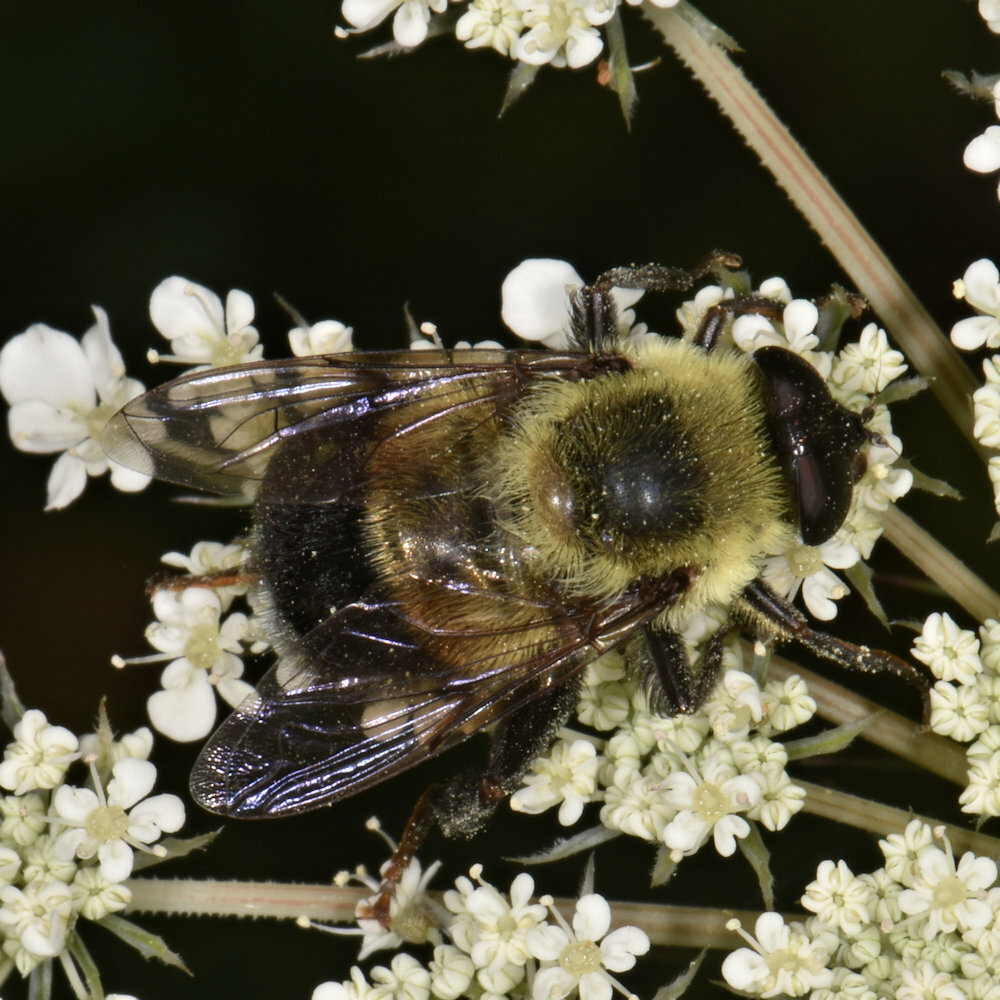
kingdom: Animalia
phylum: Arthropoda
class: Insecta
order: Diptera
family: Syrphidae
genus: Eristalis
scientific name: Eristalis anthophorina
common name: Orange-spotted drone fly
